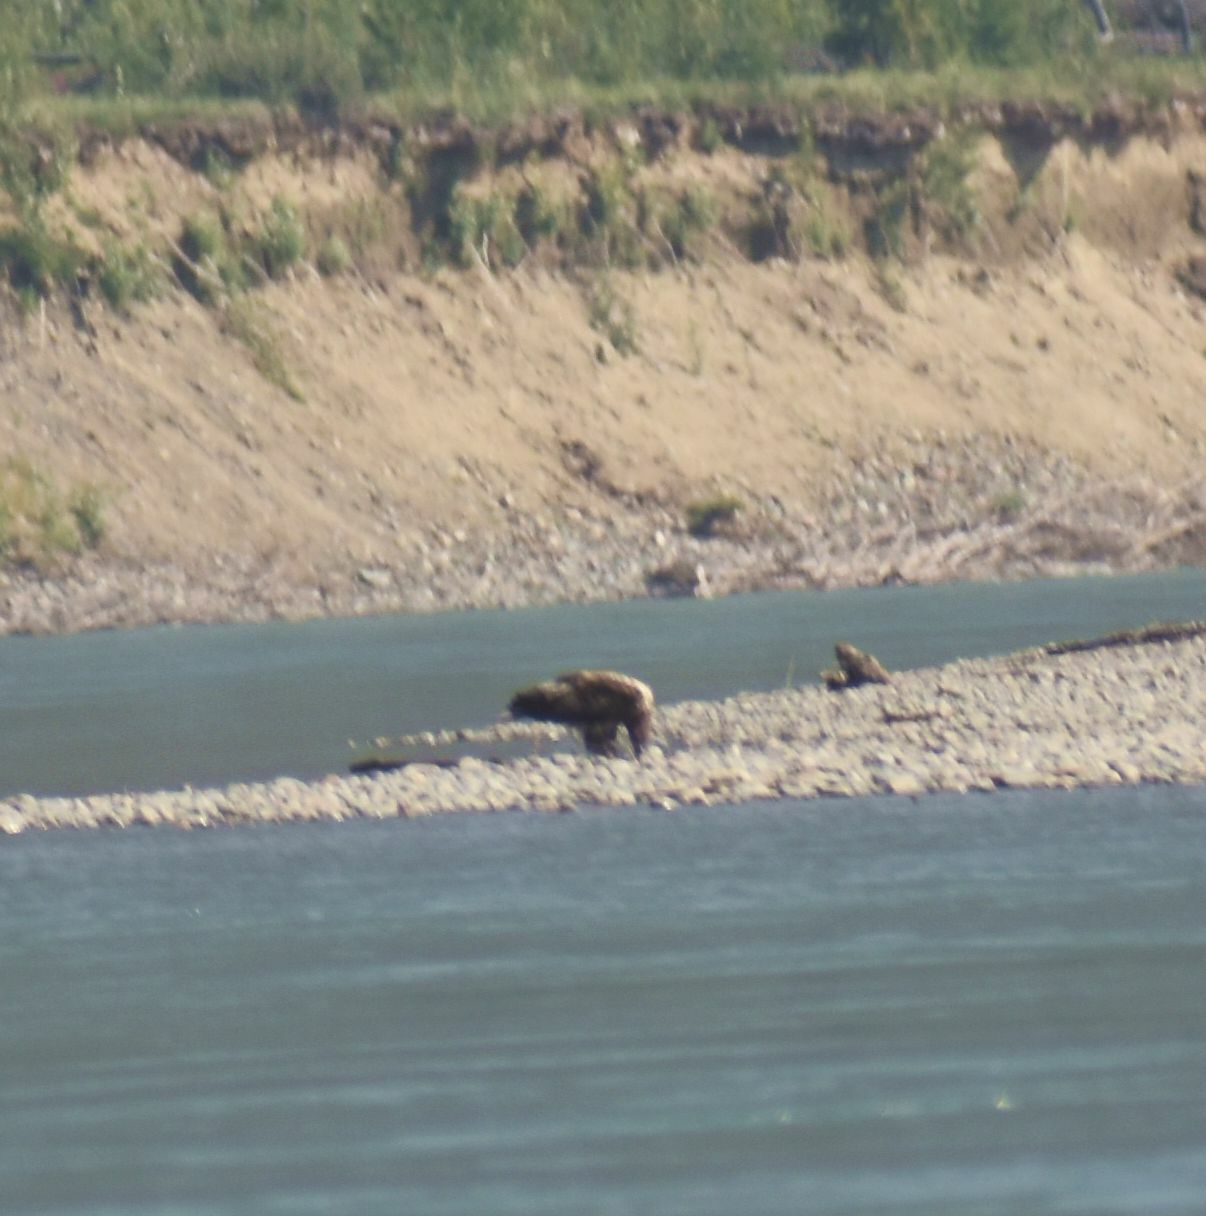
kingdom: Animalia
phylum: Chordata
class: Aves
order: Accipitriformes
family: Accipitridae
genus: Haliaeetus
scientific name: Haliaeetus leucocephalus
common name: Bald eagle
